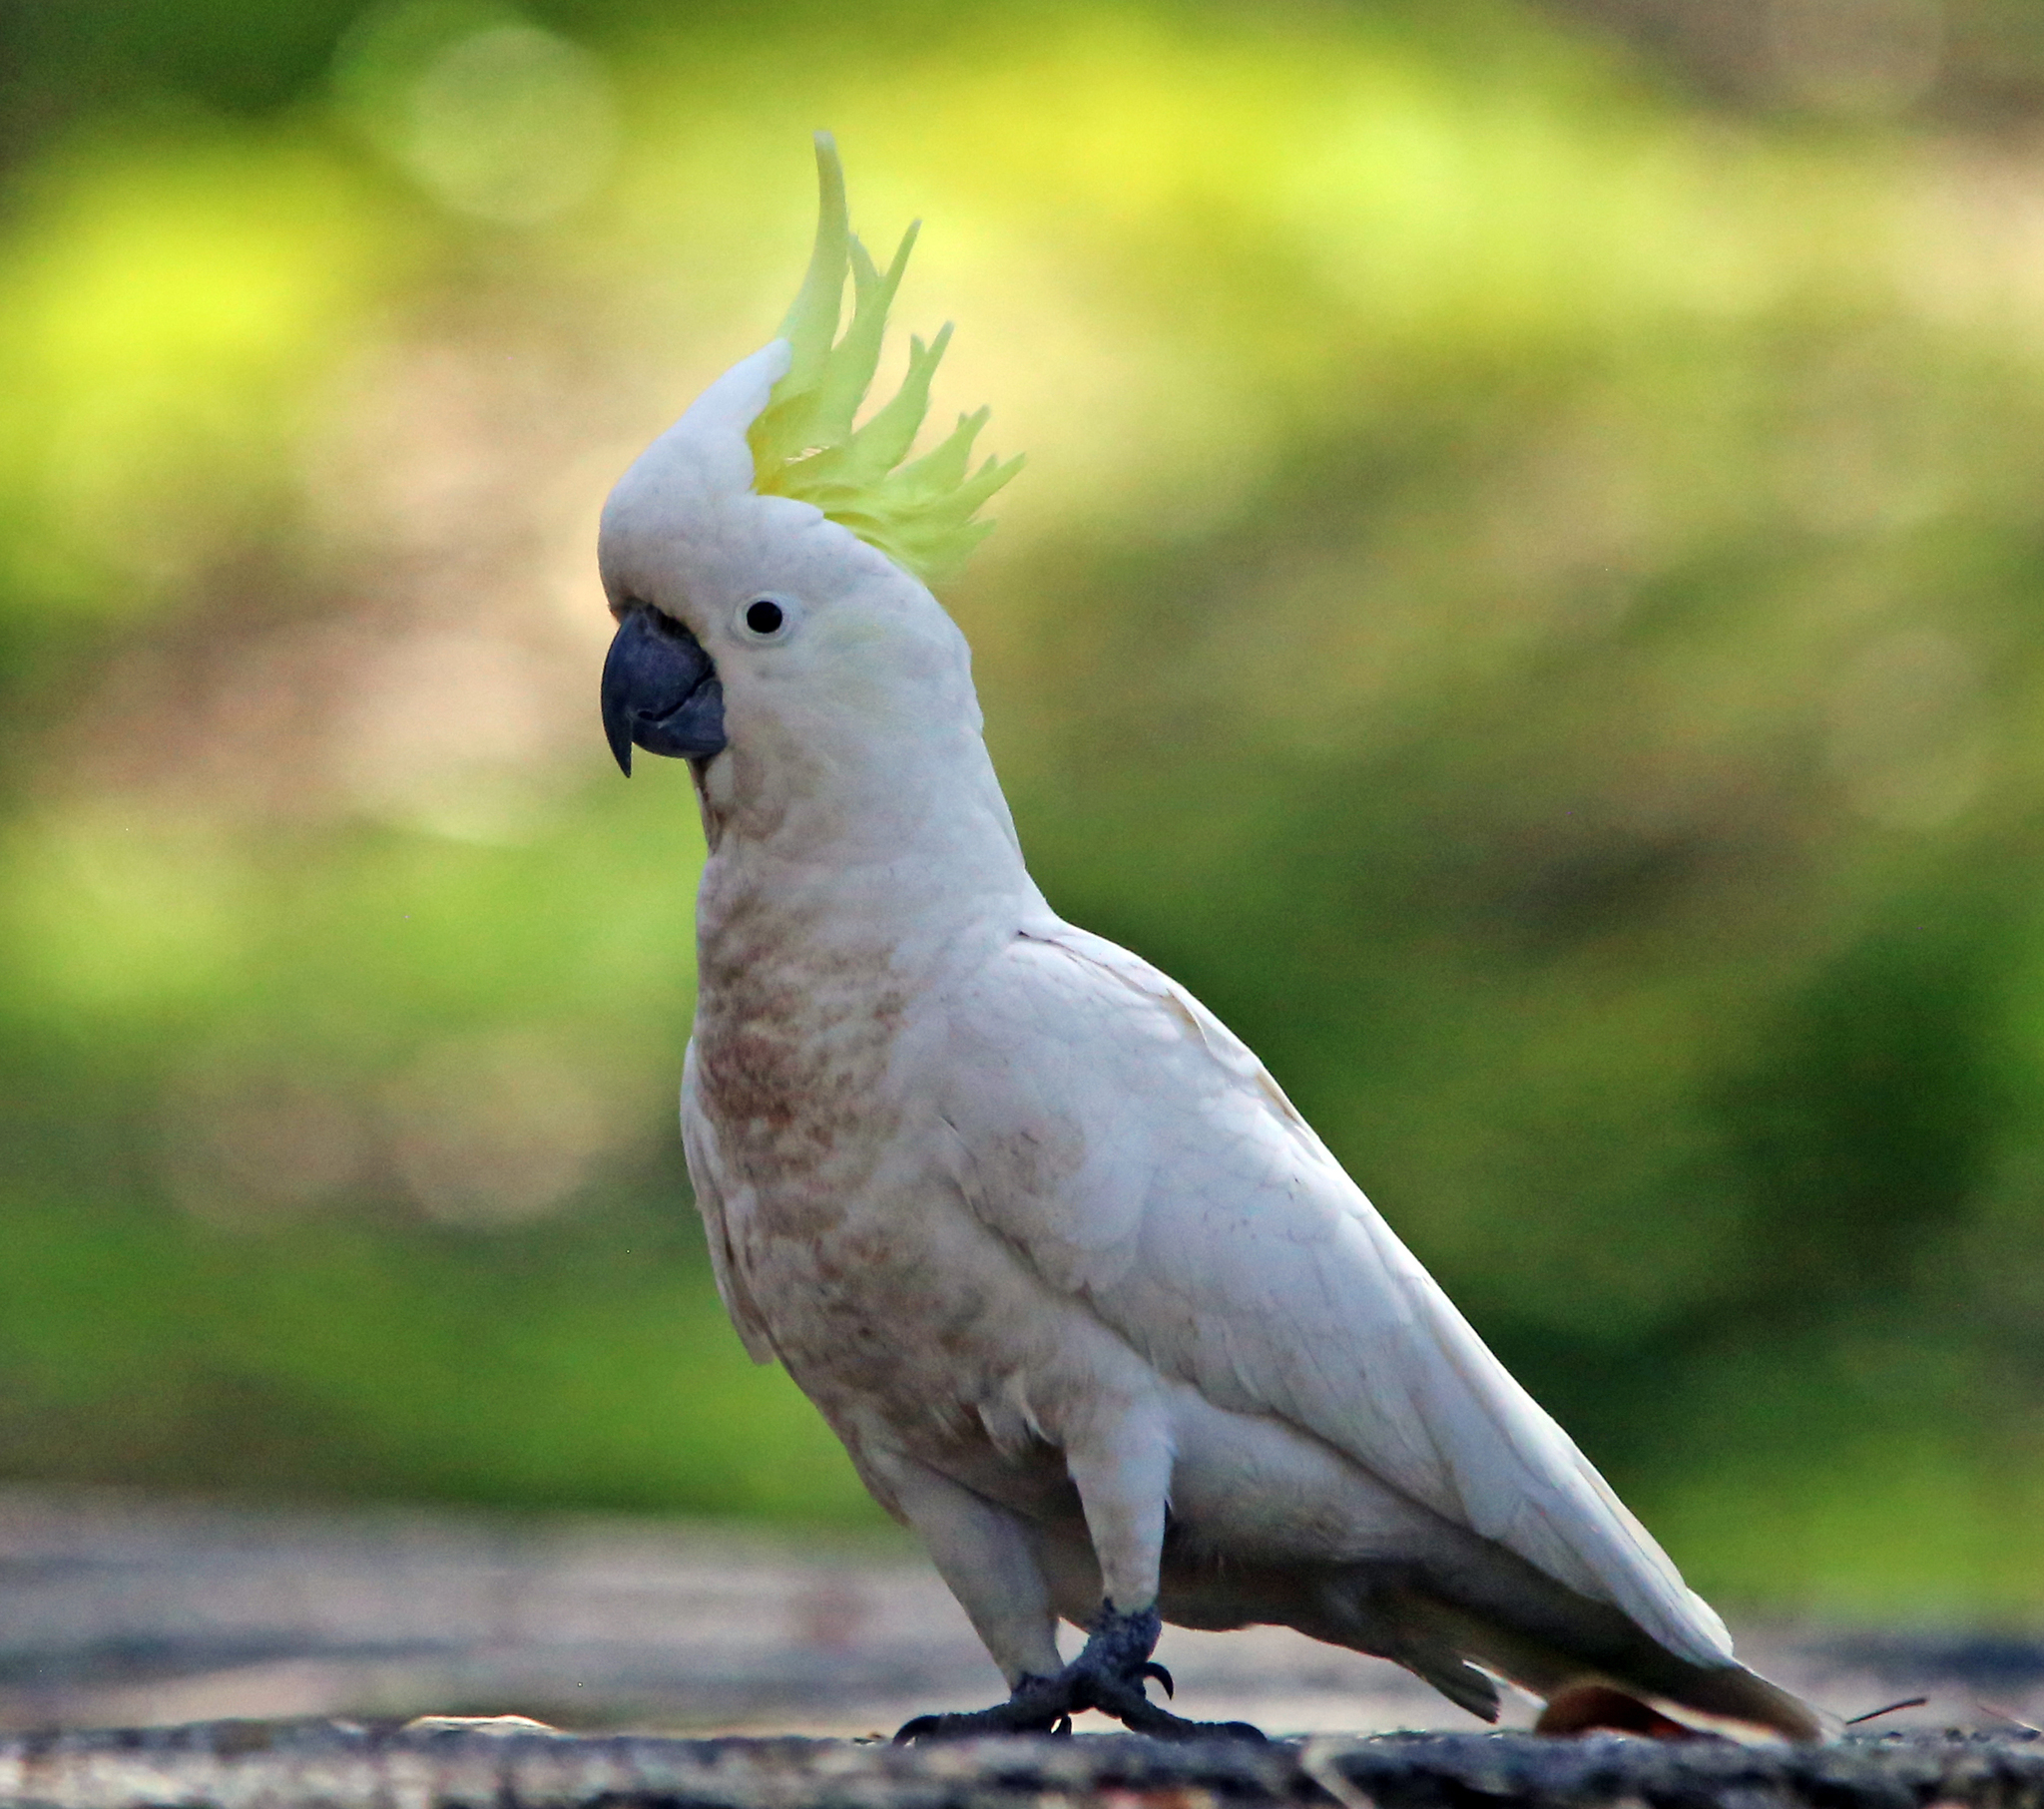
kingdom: Animalia
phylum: Chordata
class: Aves
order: Psittaciformes
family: Psittacidae
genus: Cacatua
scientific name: Cacatua galerita
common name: Sulphur-crested cockatoo
